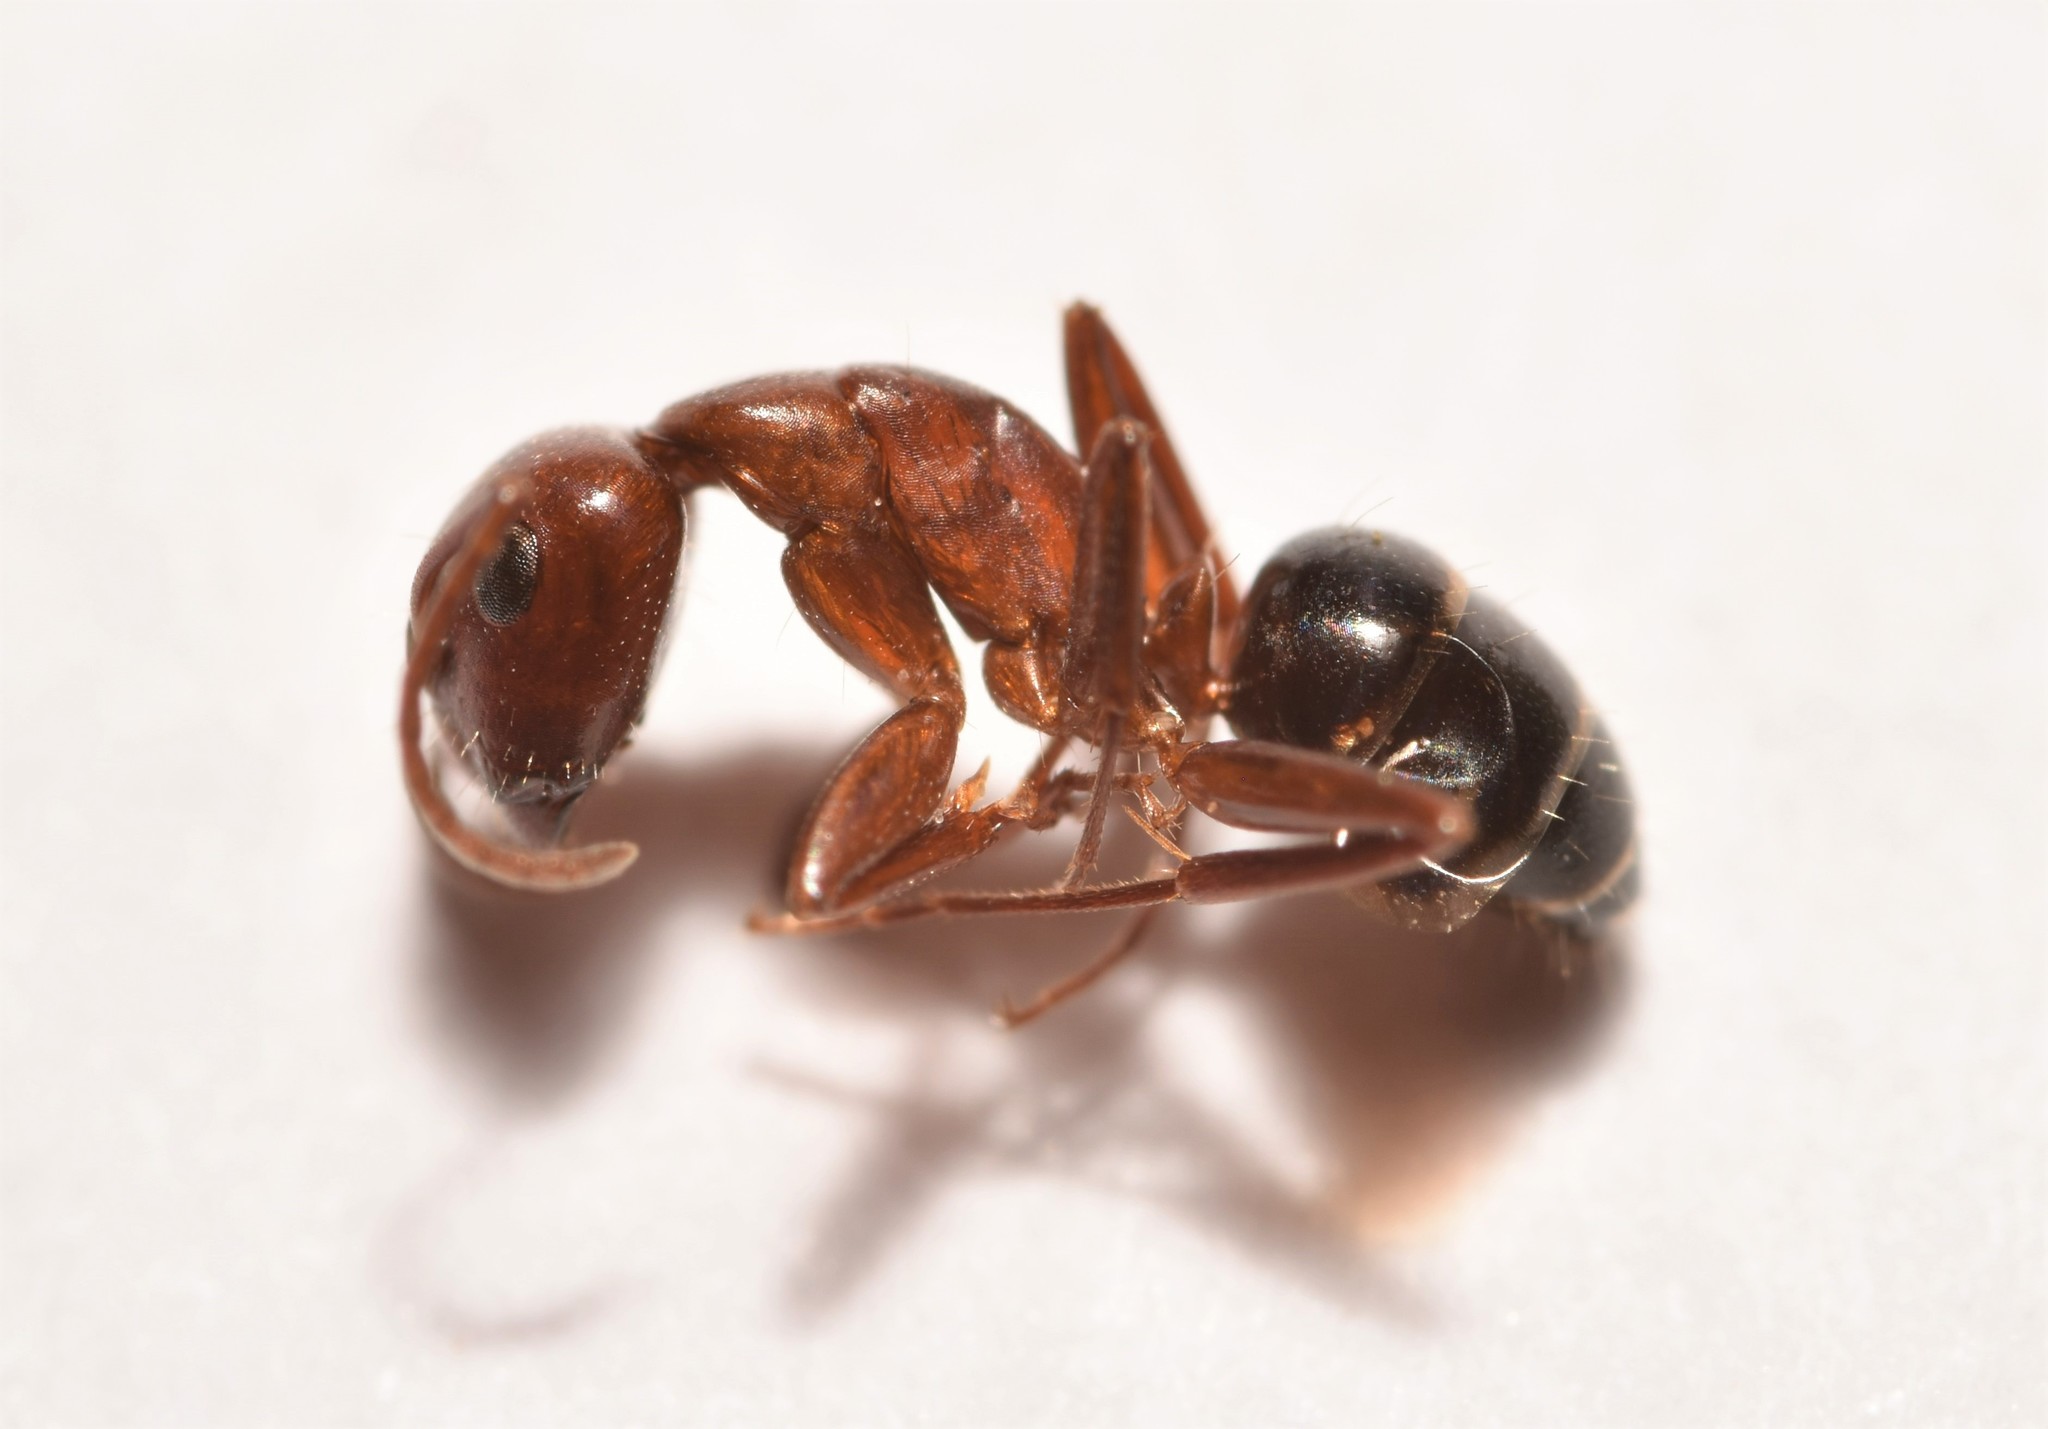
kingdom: Animalia
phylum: Arthropoda
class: Insecta
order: Hymenoptera
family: Formicidae
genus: Camponotus
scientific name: Camponotus discolor
